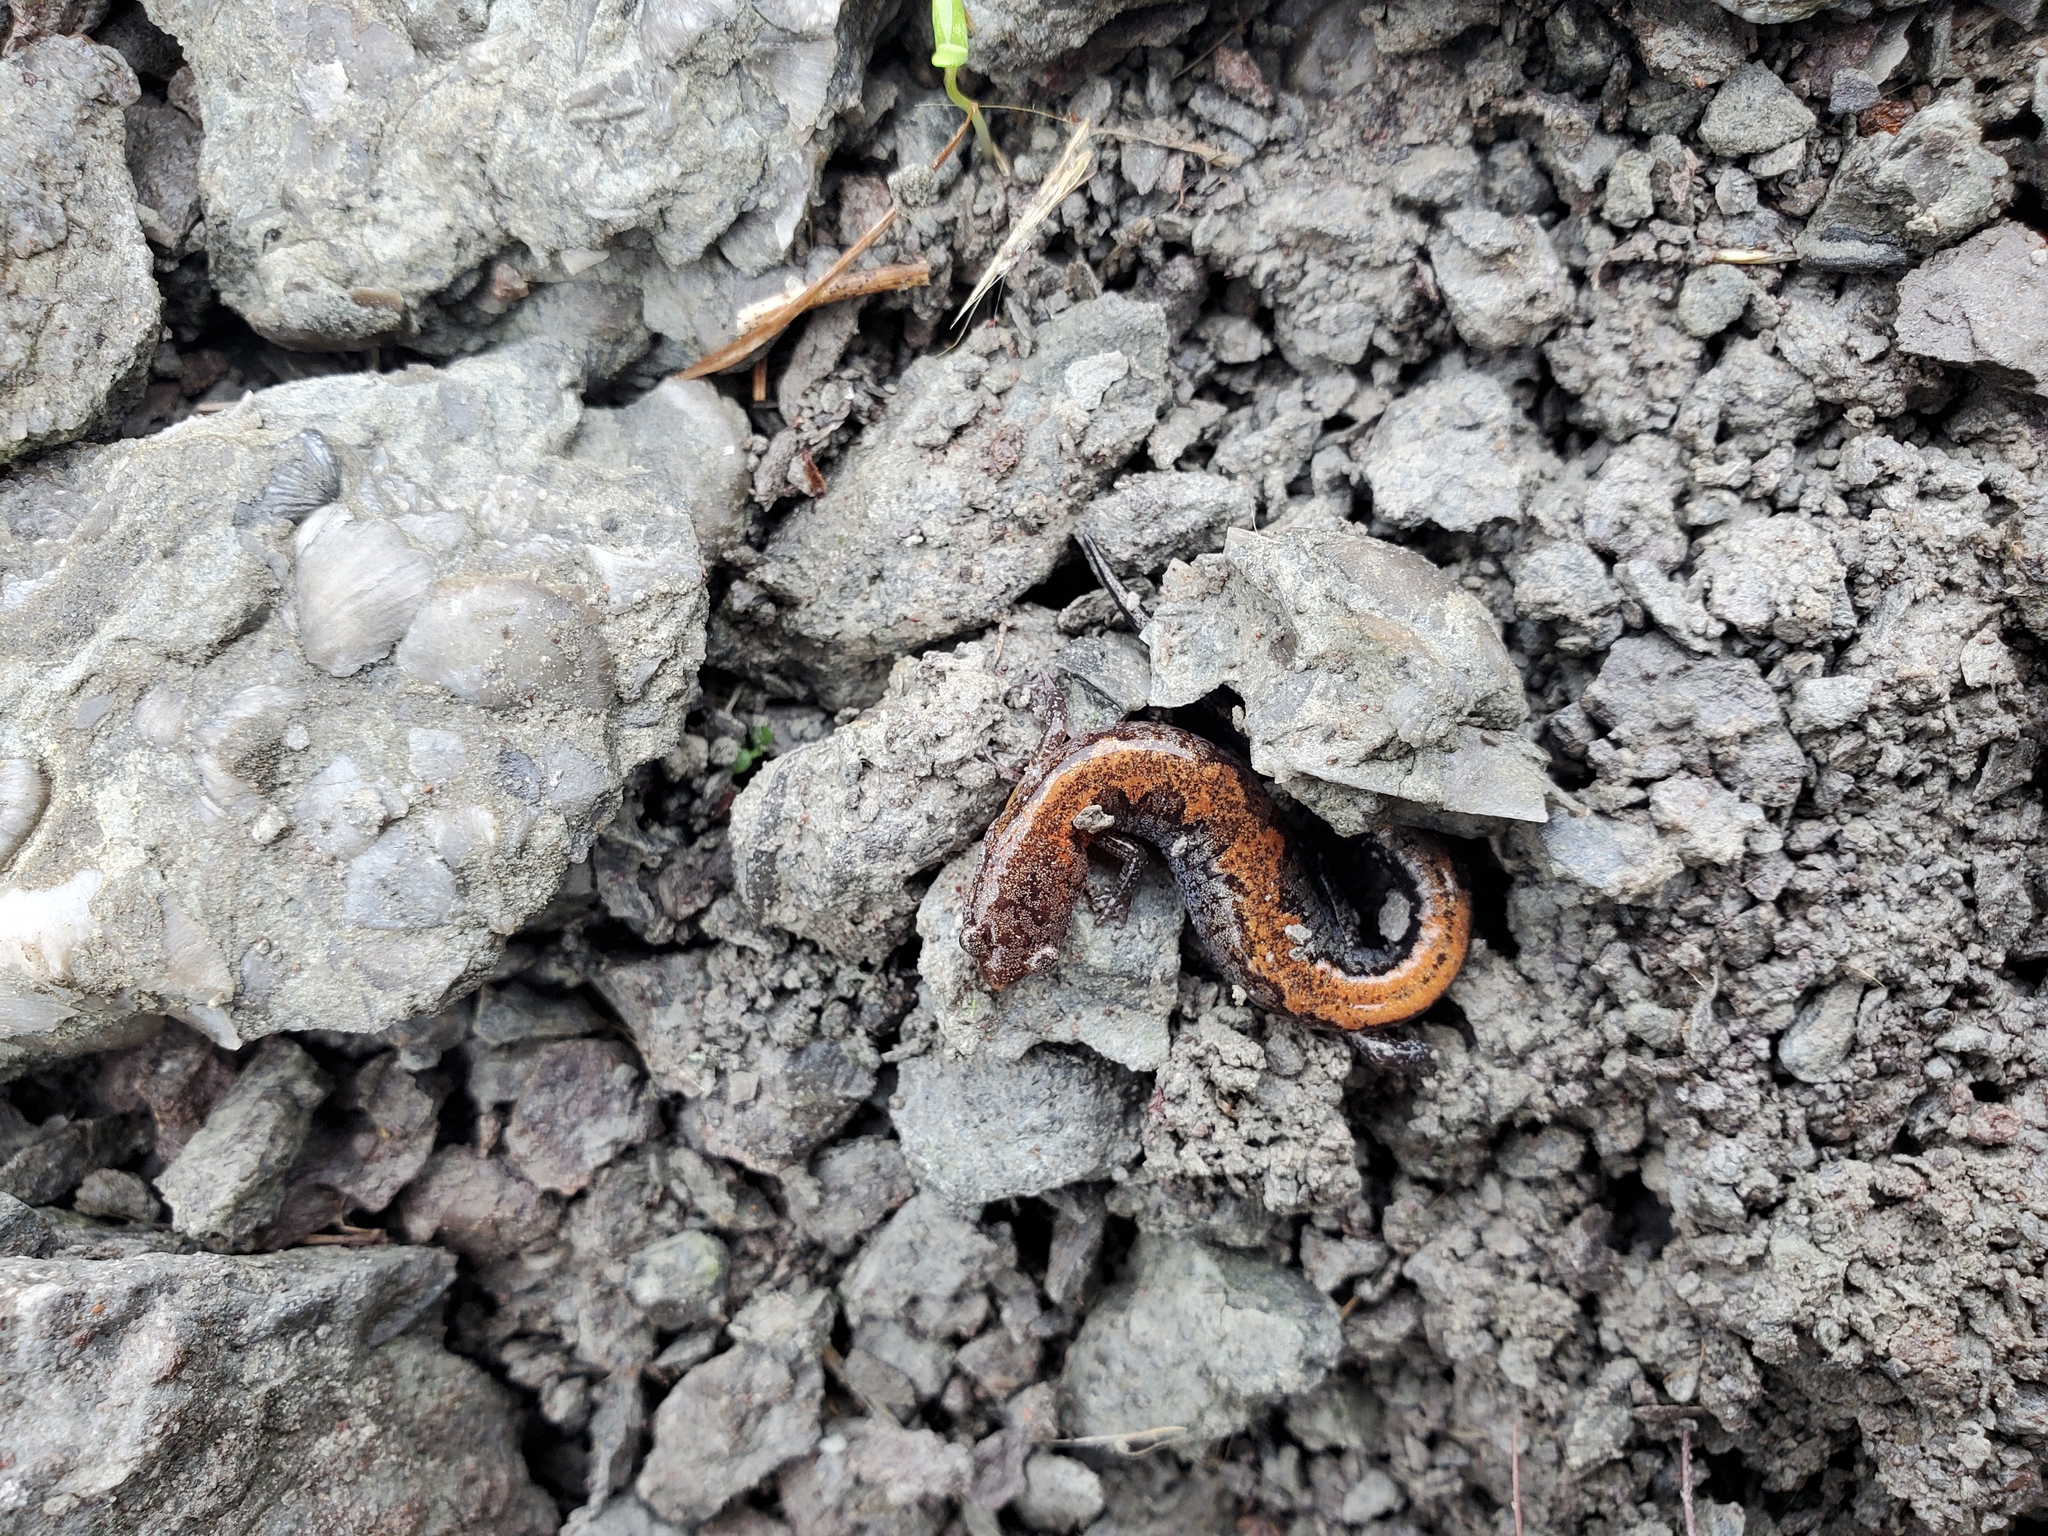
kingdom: Animalia
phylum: Chordata
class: Amphibia
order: Caudata
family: Plethodontidae
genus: Plethodon
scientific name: Plethodon dorsalis
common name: Northern zigzag salamander
